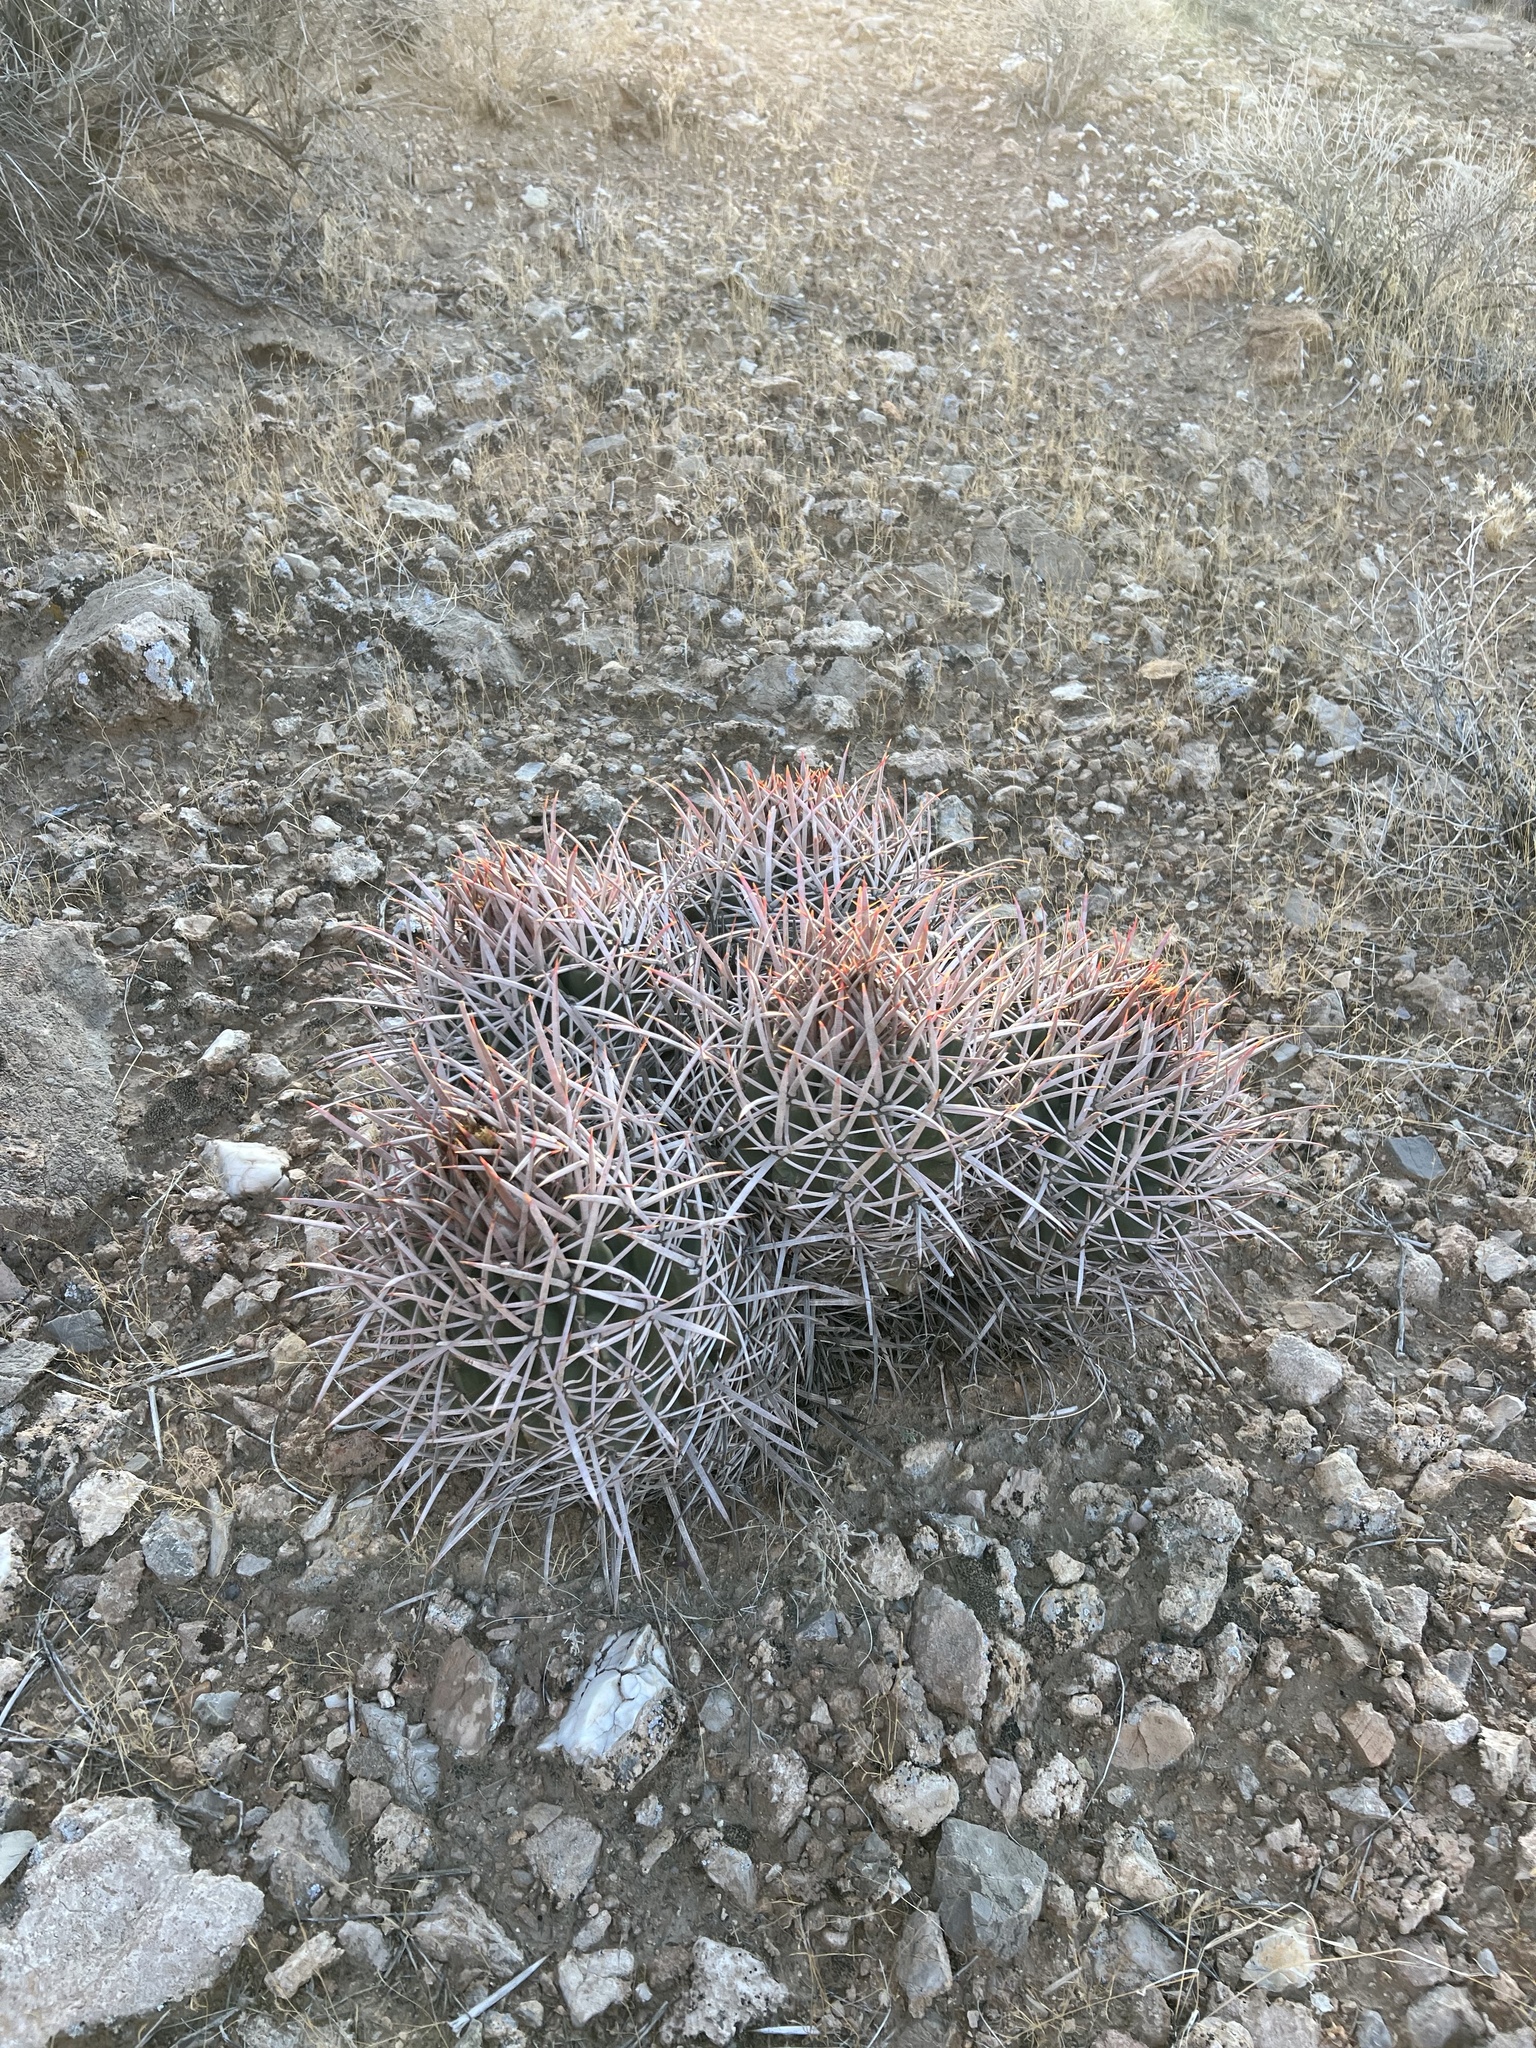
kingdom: Plantae
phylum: Tracheophyta
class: Magnoliopsida
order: Caryophyllales
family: Cactaceae
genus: Echinocactus
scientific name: Echinocactus polycephalus
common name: Cottontop cactus
